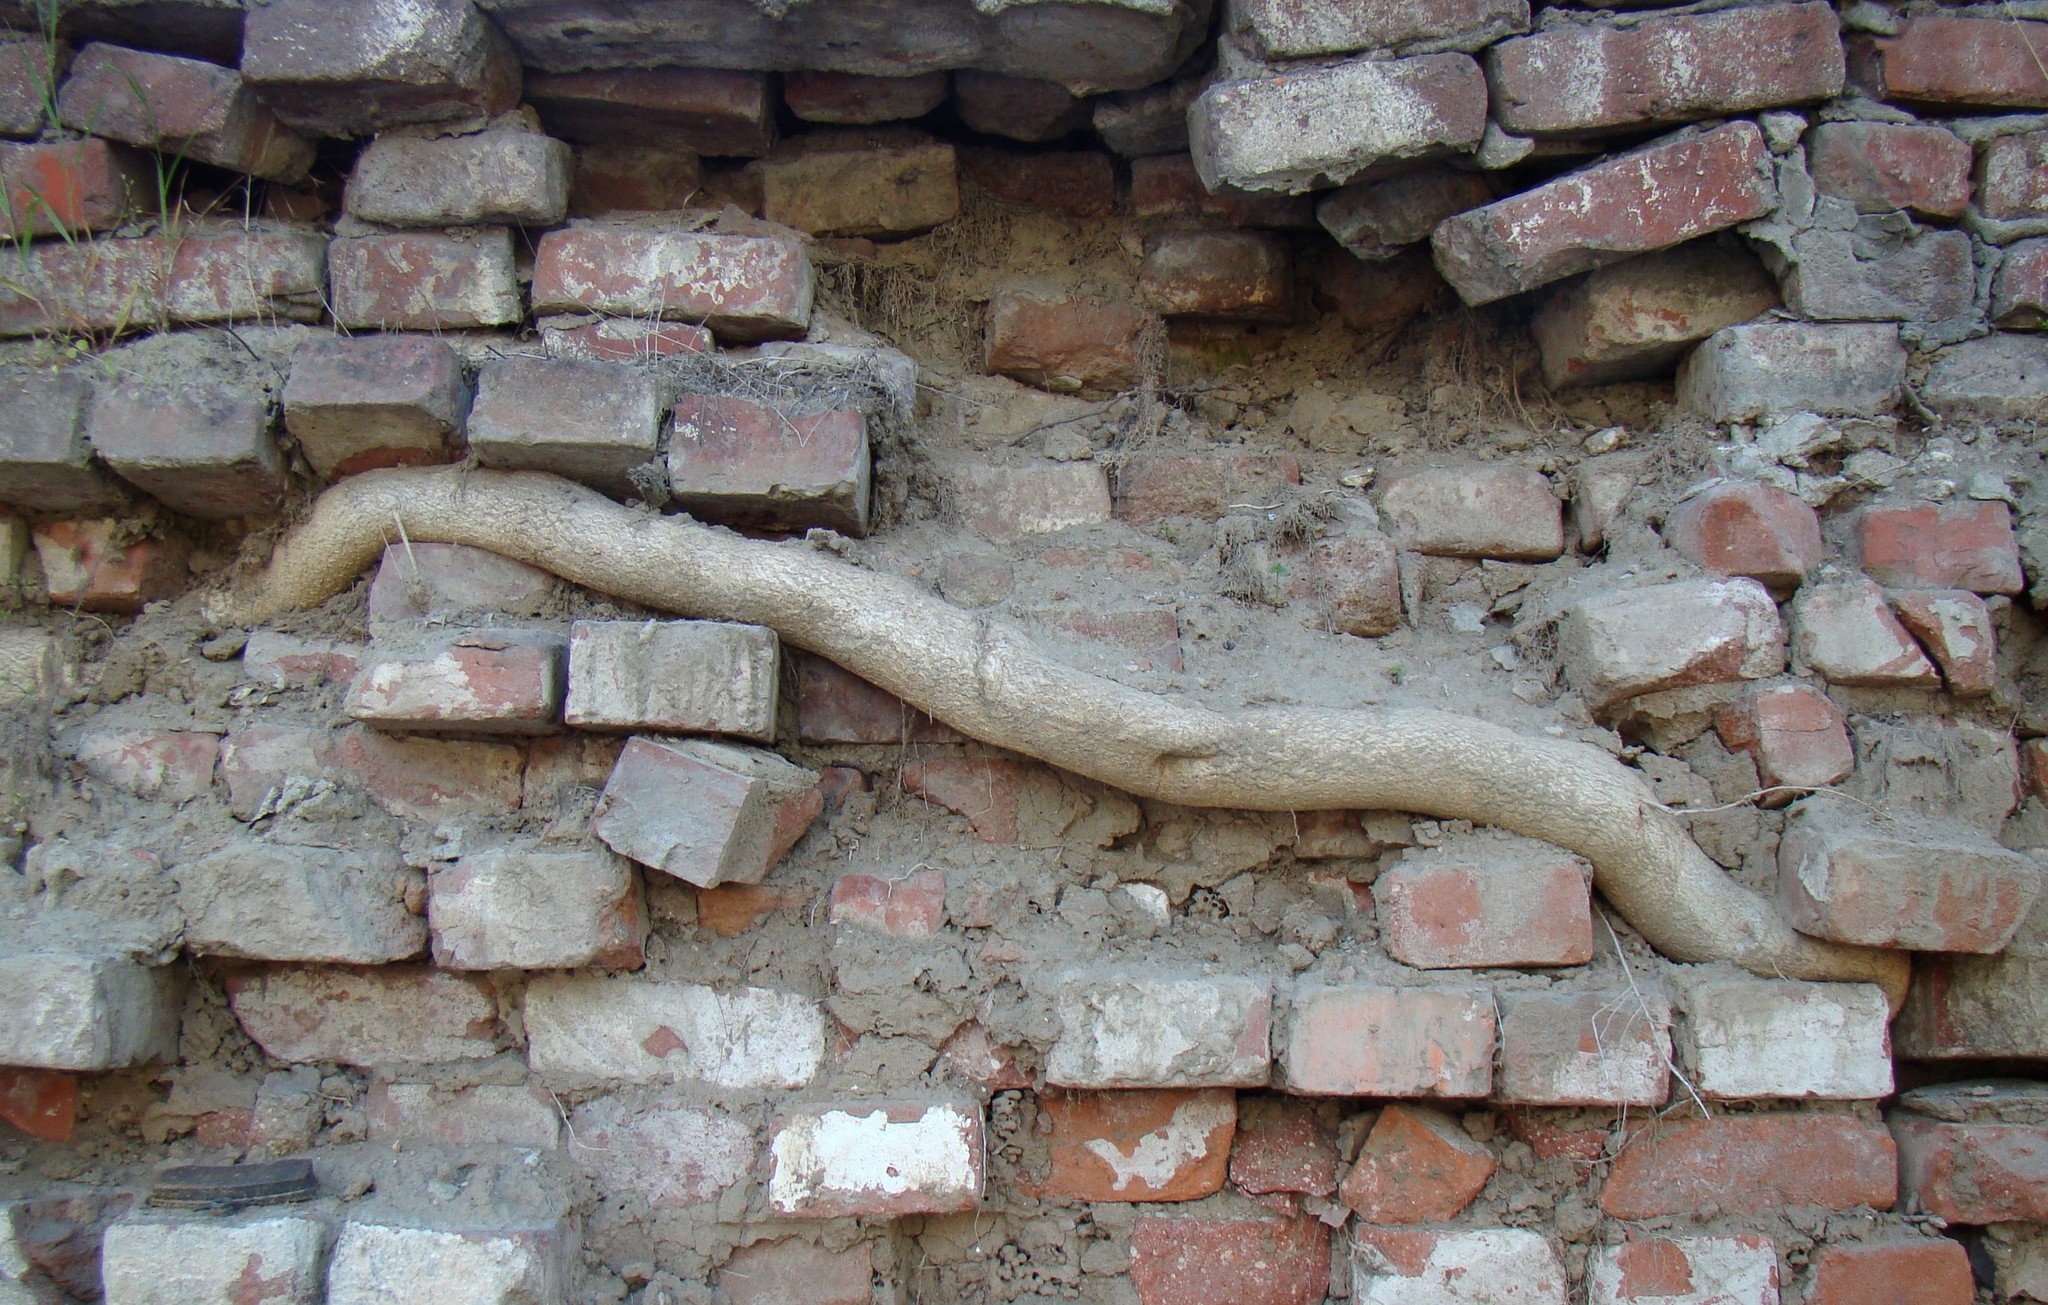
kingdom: Plantae
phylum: Tracheophyta
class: Magnoliopsida
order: Sapindales
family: Simaroubaceae
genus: Ailanthus
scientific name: Ailanthus altissima
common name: Tree-of-heaven
